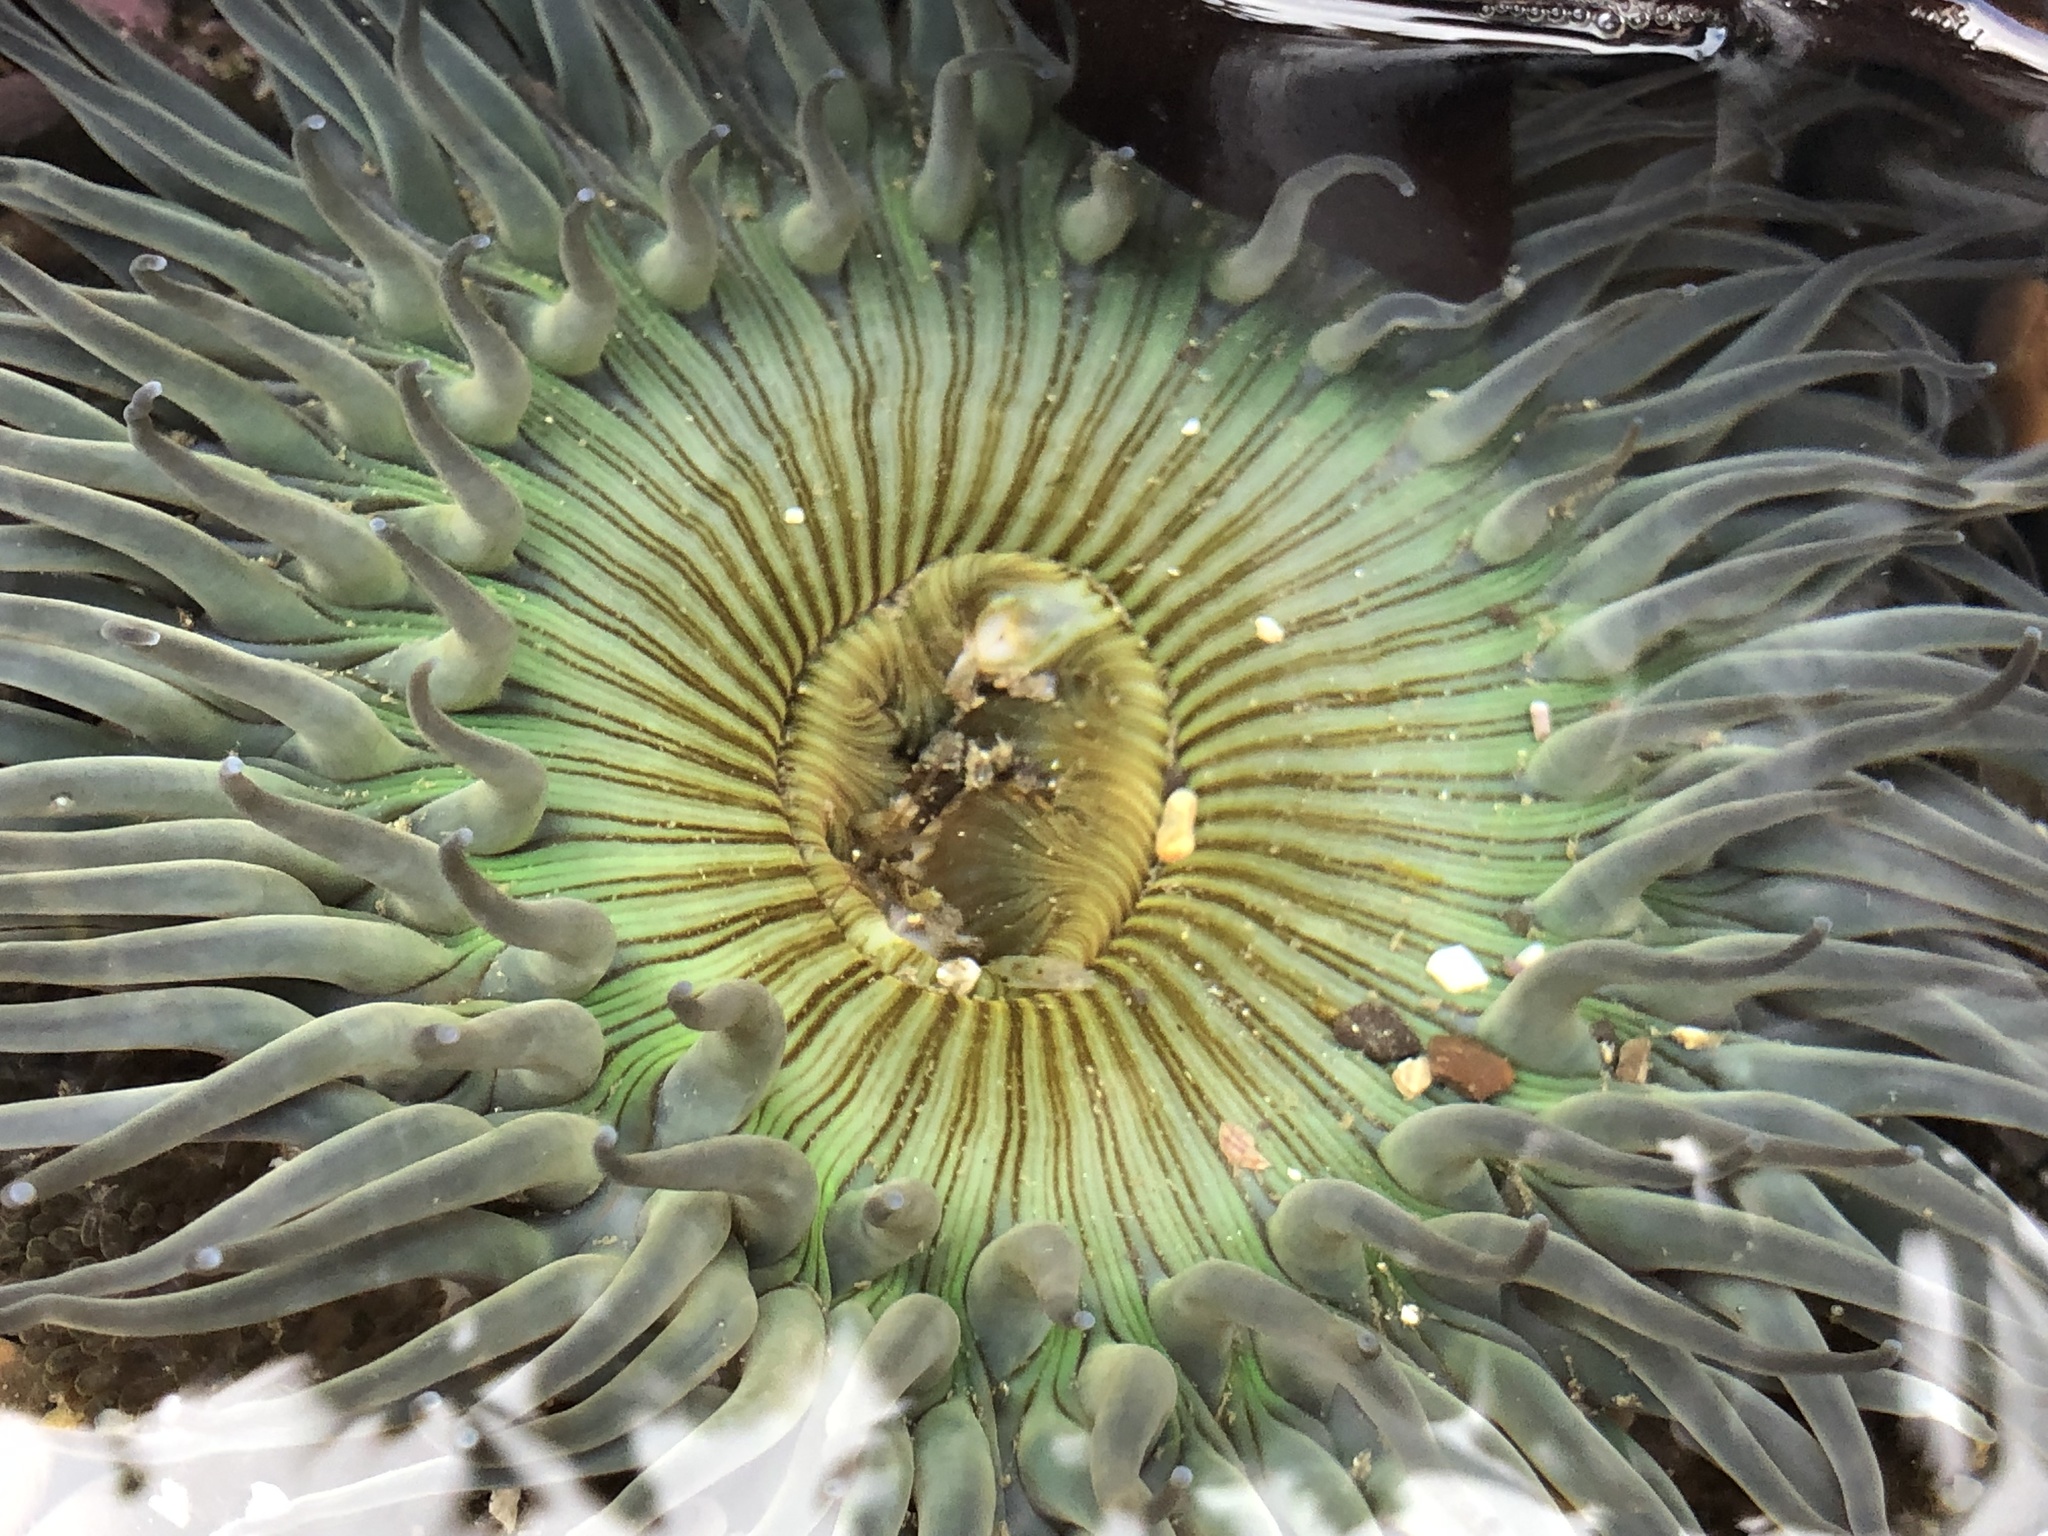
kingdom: Animalia
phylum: Cnidaria
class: Anthozoa
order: Actiniaria
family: Actiniidae
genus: Anthopleura
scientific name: Anthopleura sola
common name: Sun anemone
